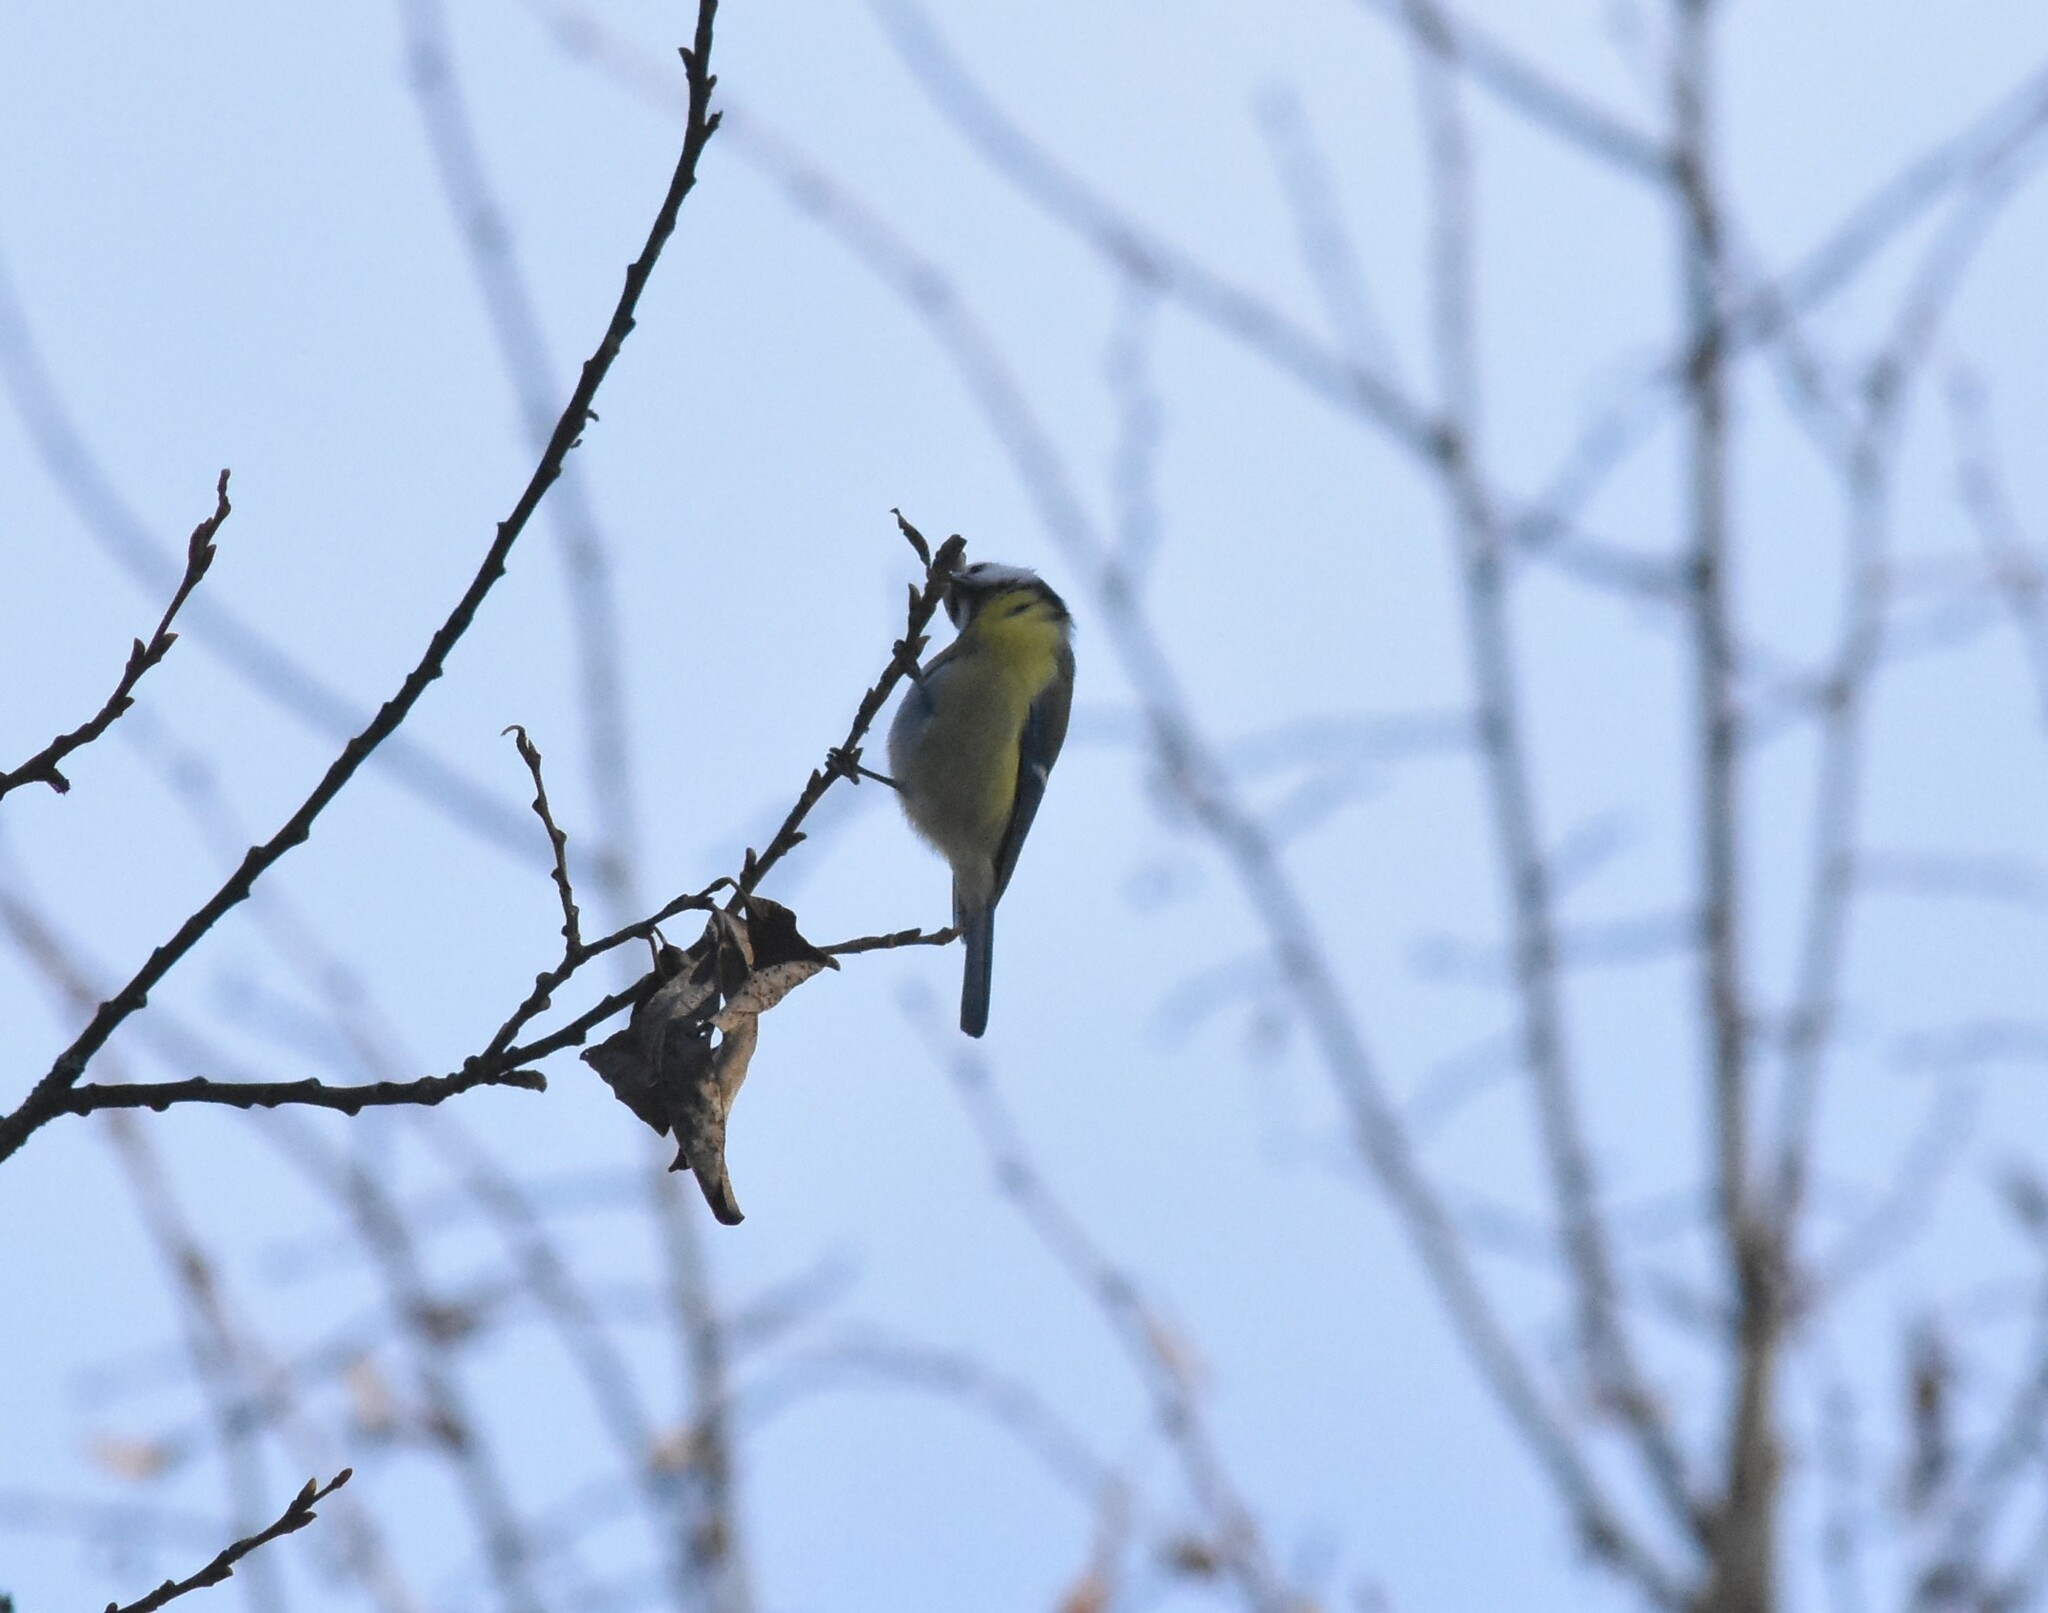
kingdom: Animalia
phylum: Chordata
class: Aves
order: Passeriformes
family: Paridae
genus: Cyanistes
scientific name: Cyanistes caeruleus
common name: Eurasian blue tit
